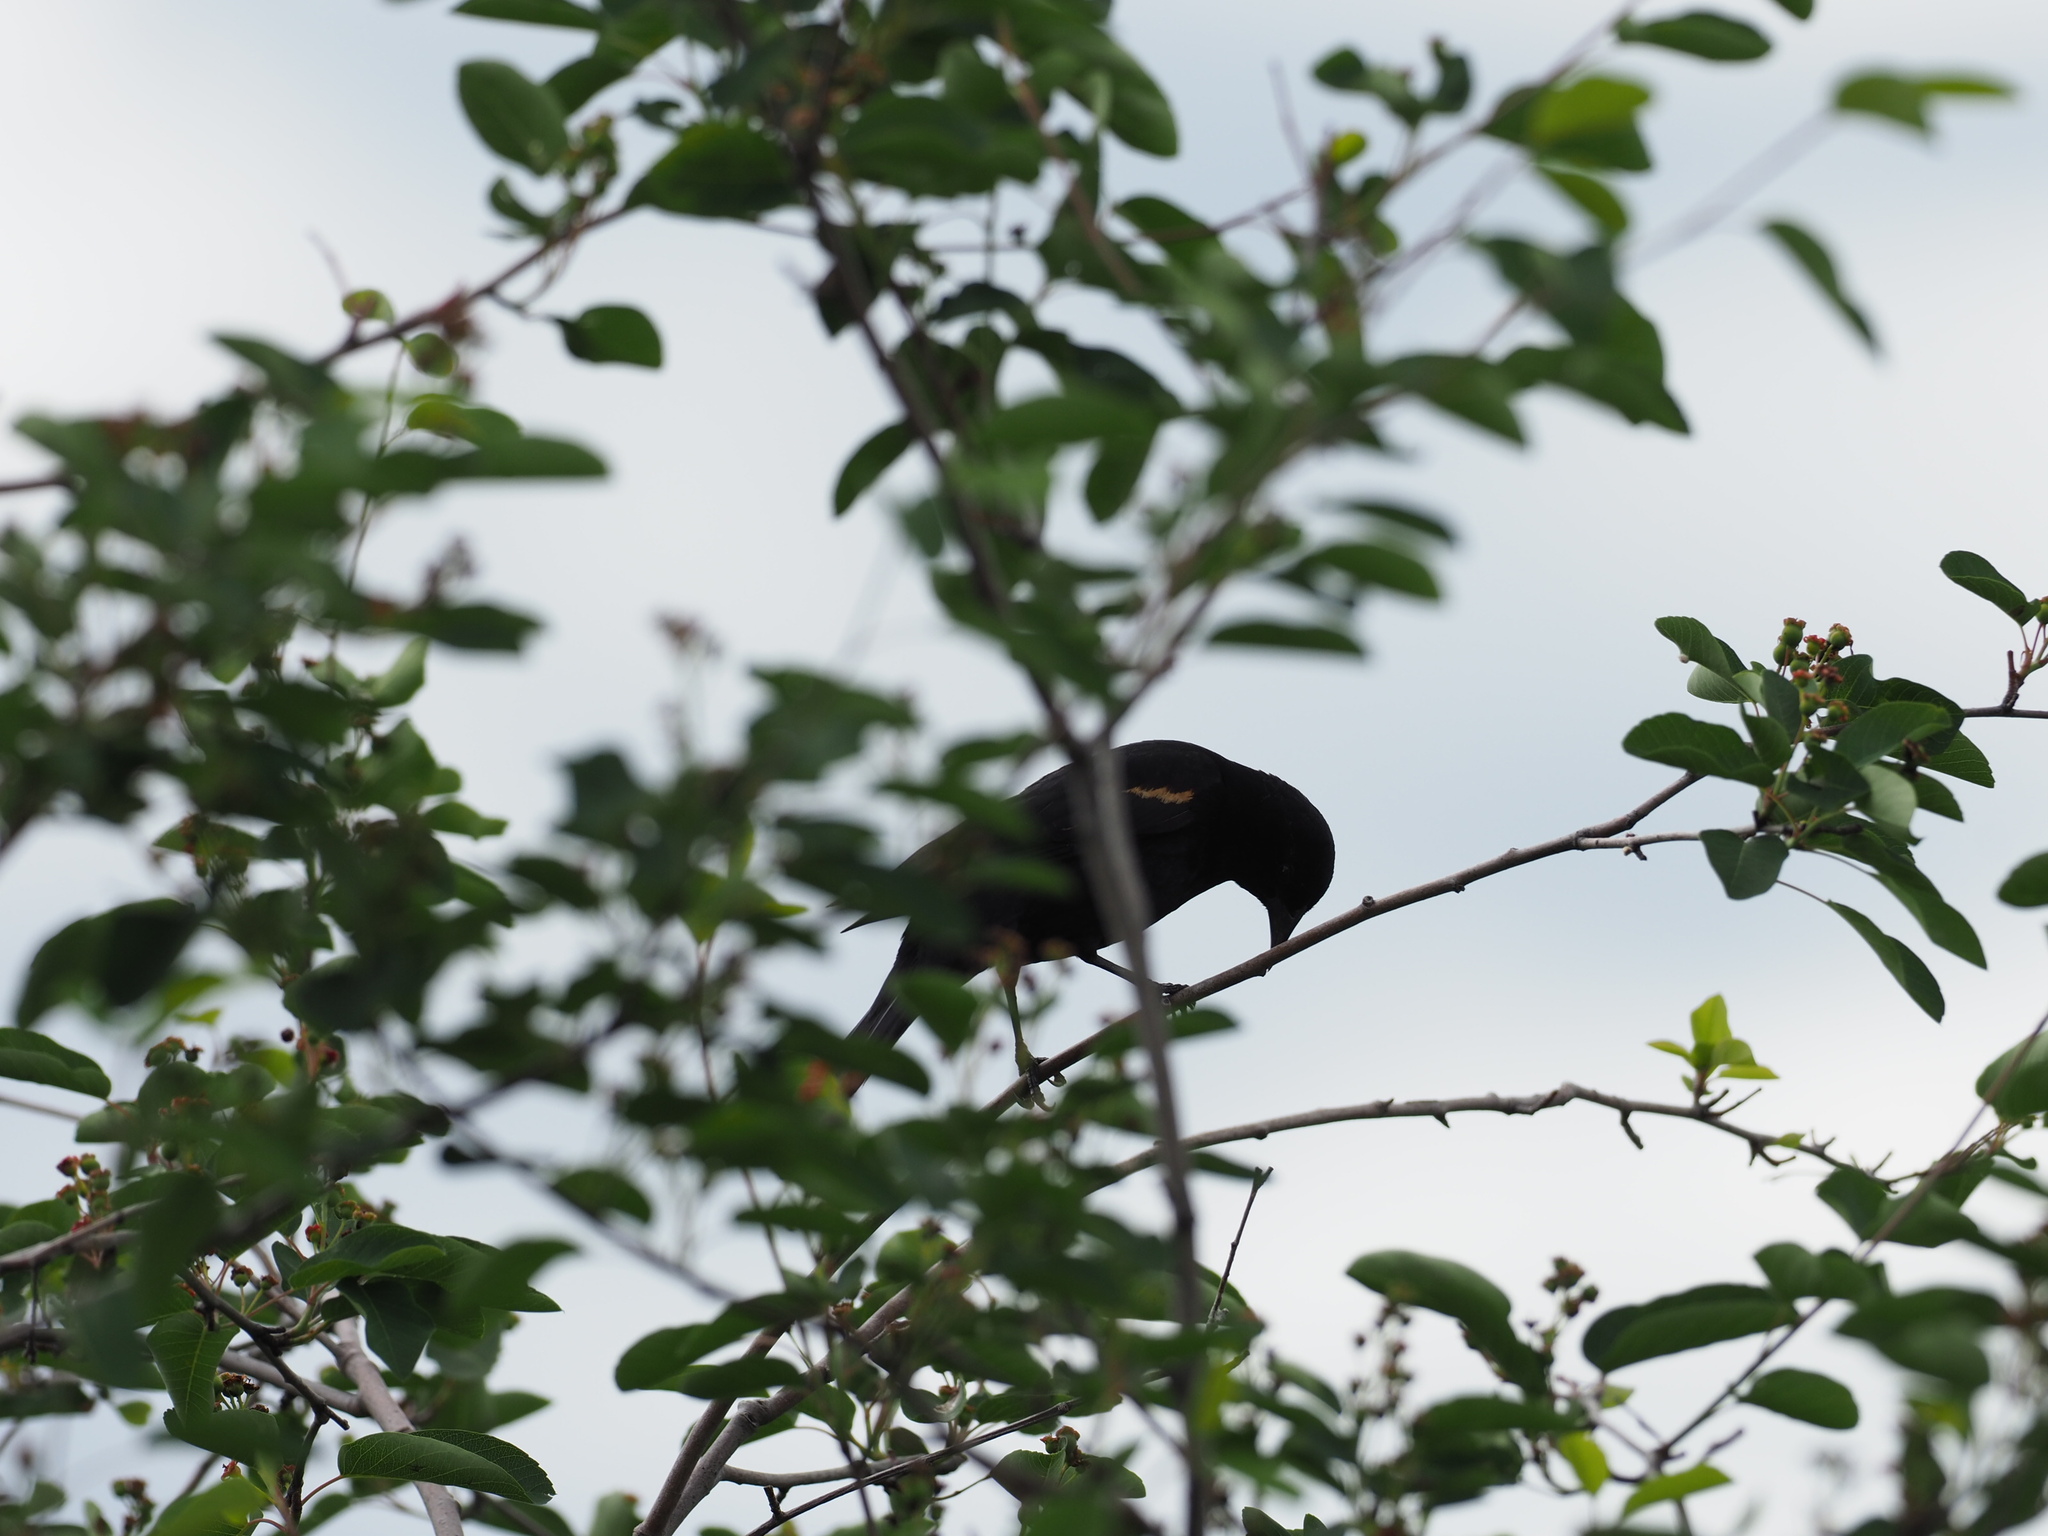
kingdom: Animalia
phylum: Chordata
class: Aves
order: Passeriformes
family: Icteridae
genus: Agelaius
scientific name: Agelaius phoeniceus
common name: Red-winged blackbird
